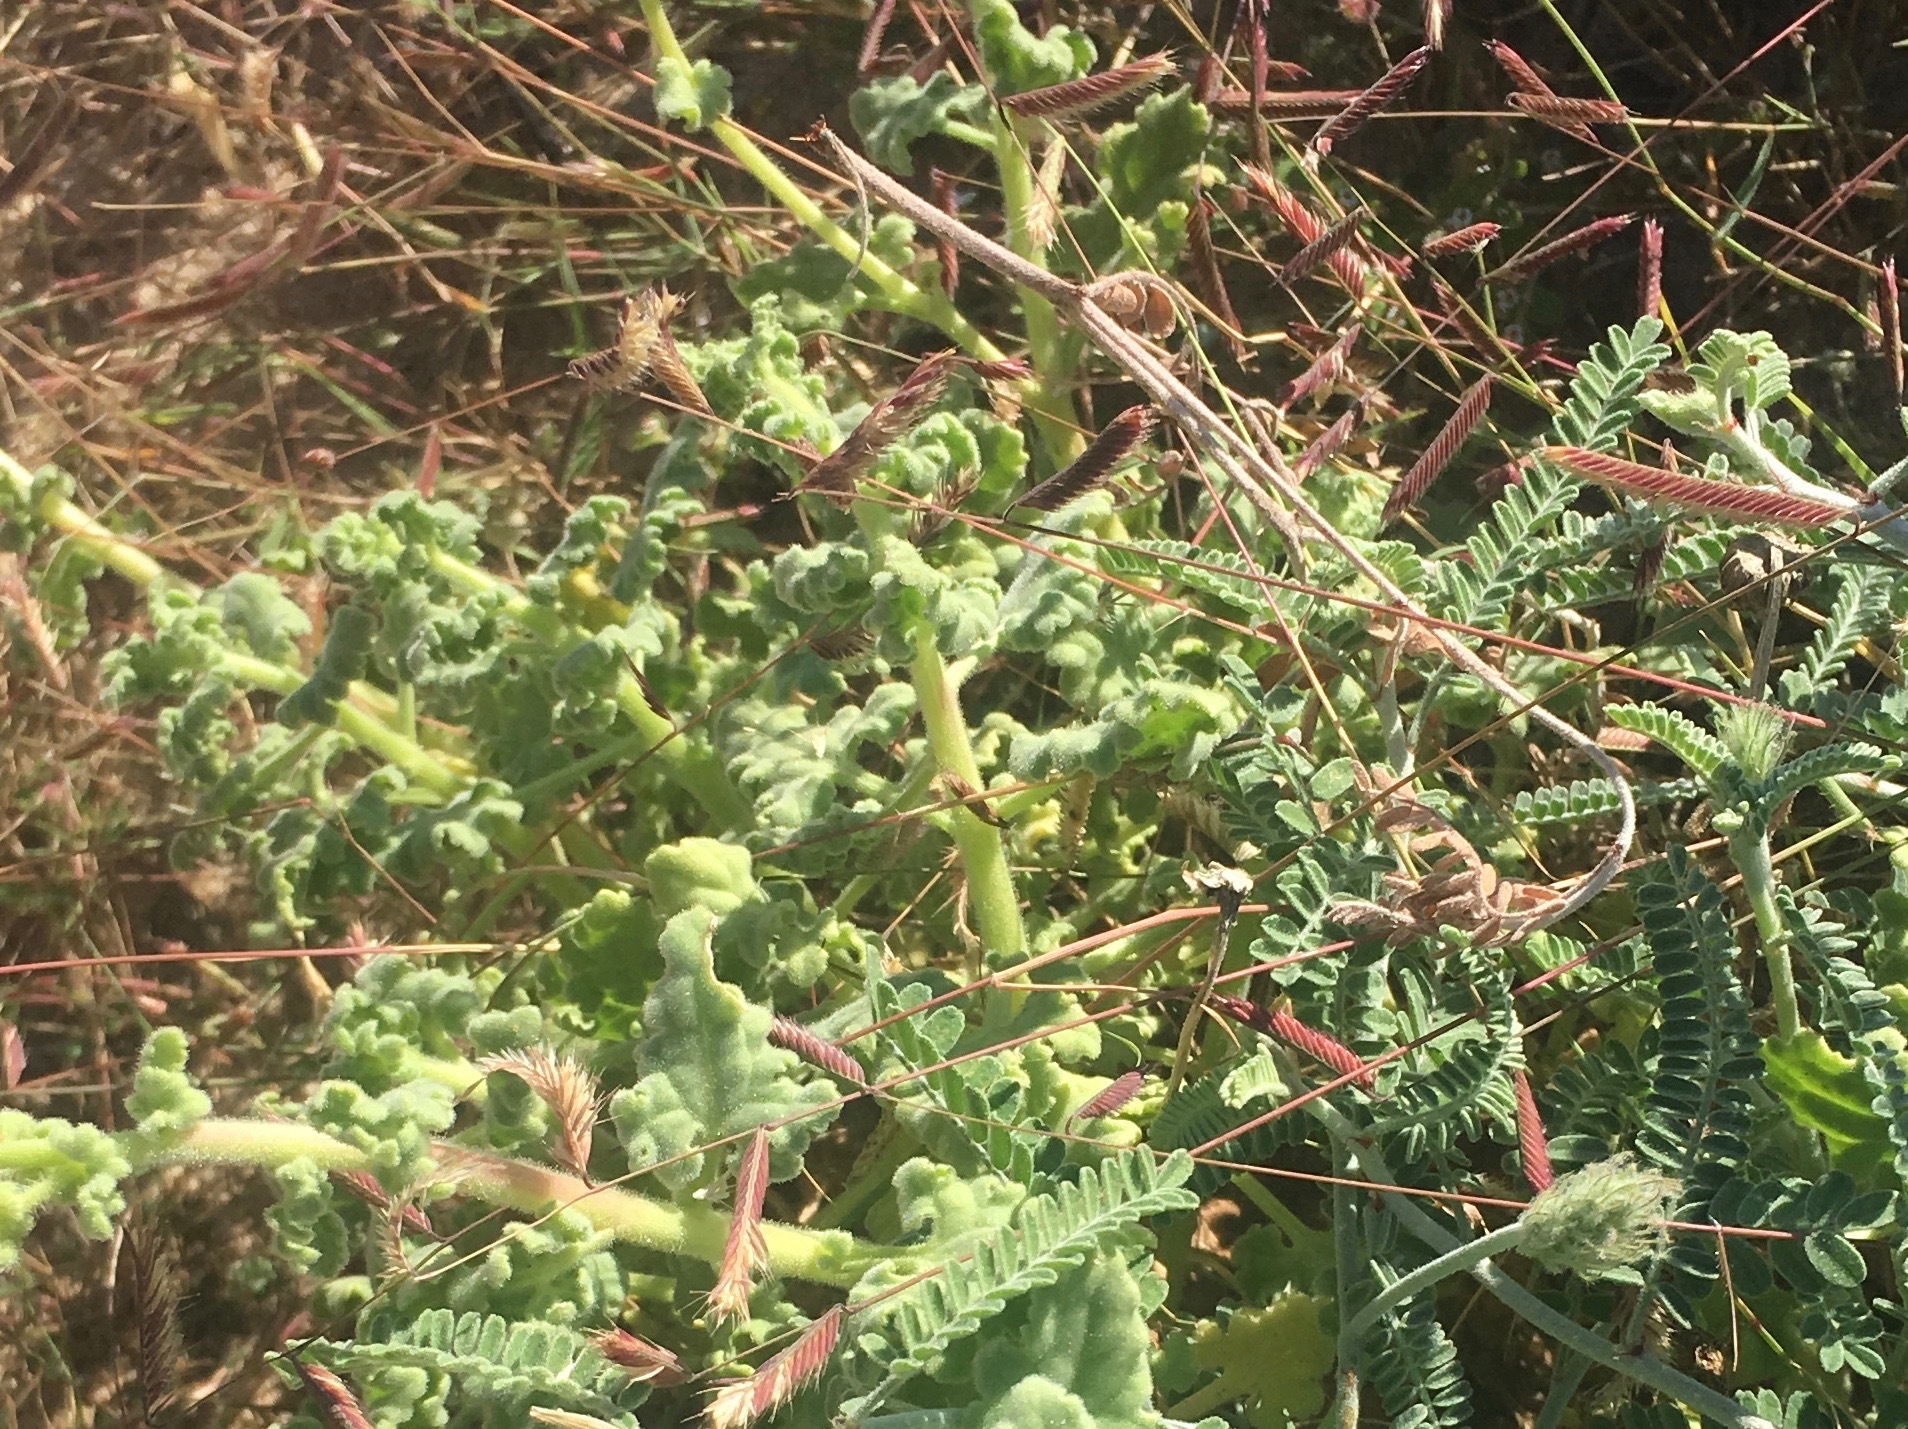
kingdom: Plantae
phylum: Tracheophyta
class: Liliopsida
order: Poales
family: Poaceae
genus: Bouteloua
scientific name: Bouteloua barbata
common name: Six-weeks grama
